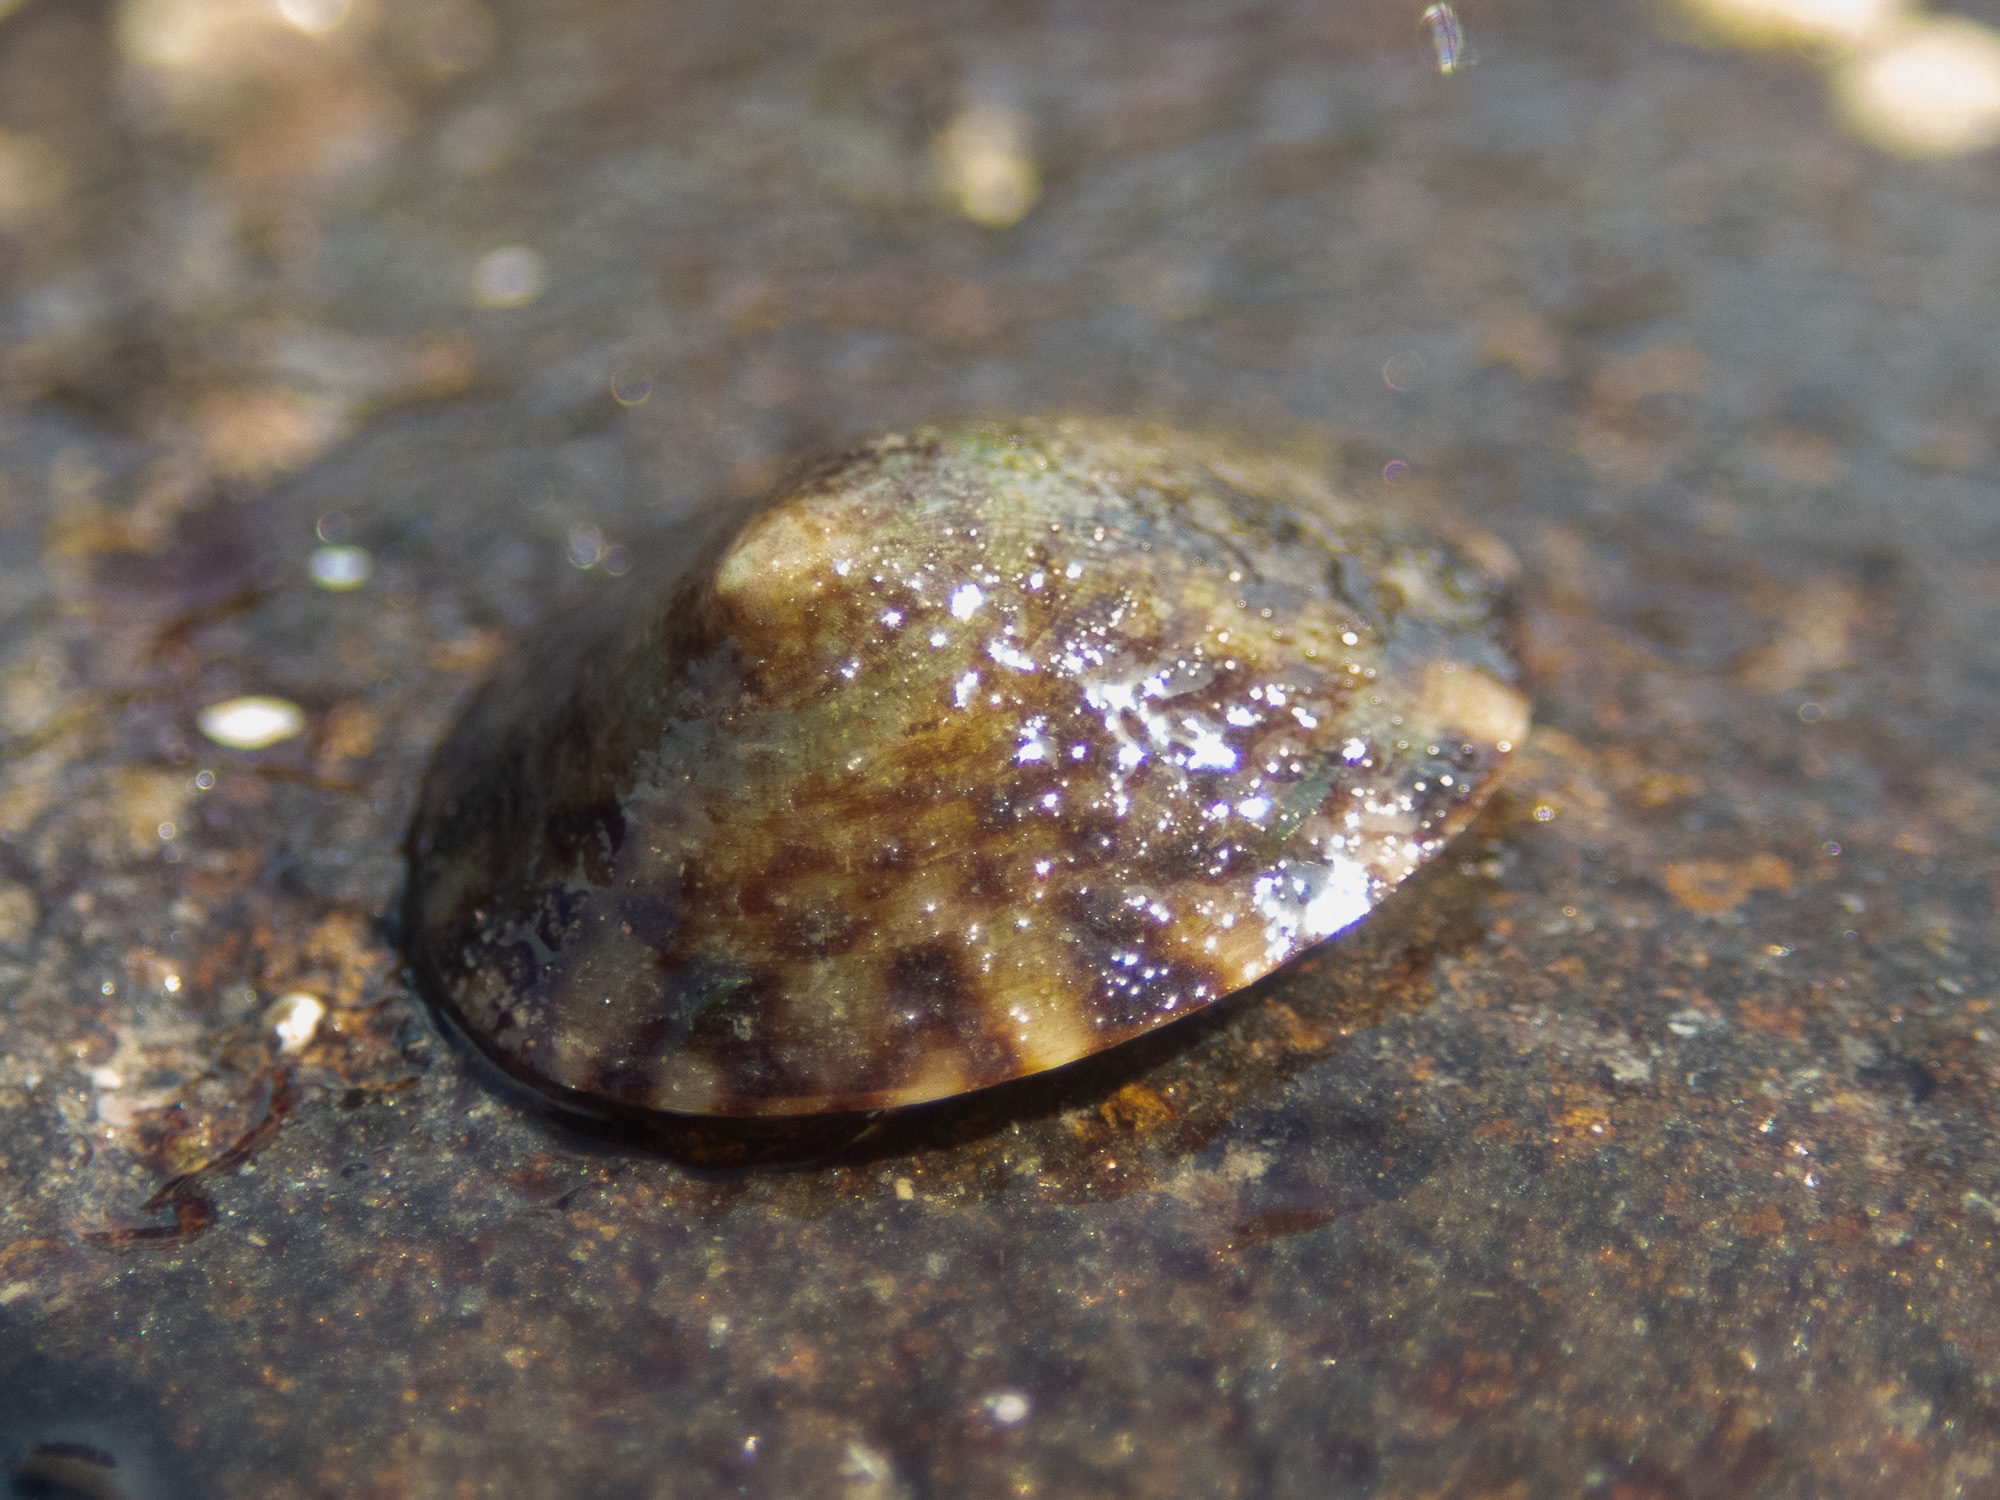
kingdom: Animalia
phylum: Mollusca
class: Gastropoda
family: Lottiidae
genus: Testudinalia
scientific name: Testudinalia testudinalis
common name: Common tortoiseshell limpet
